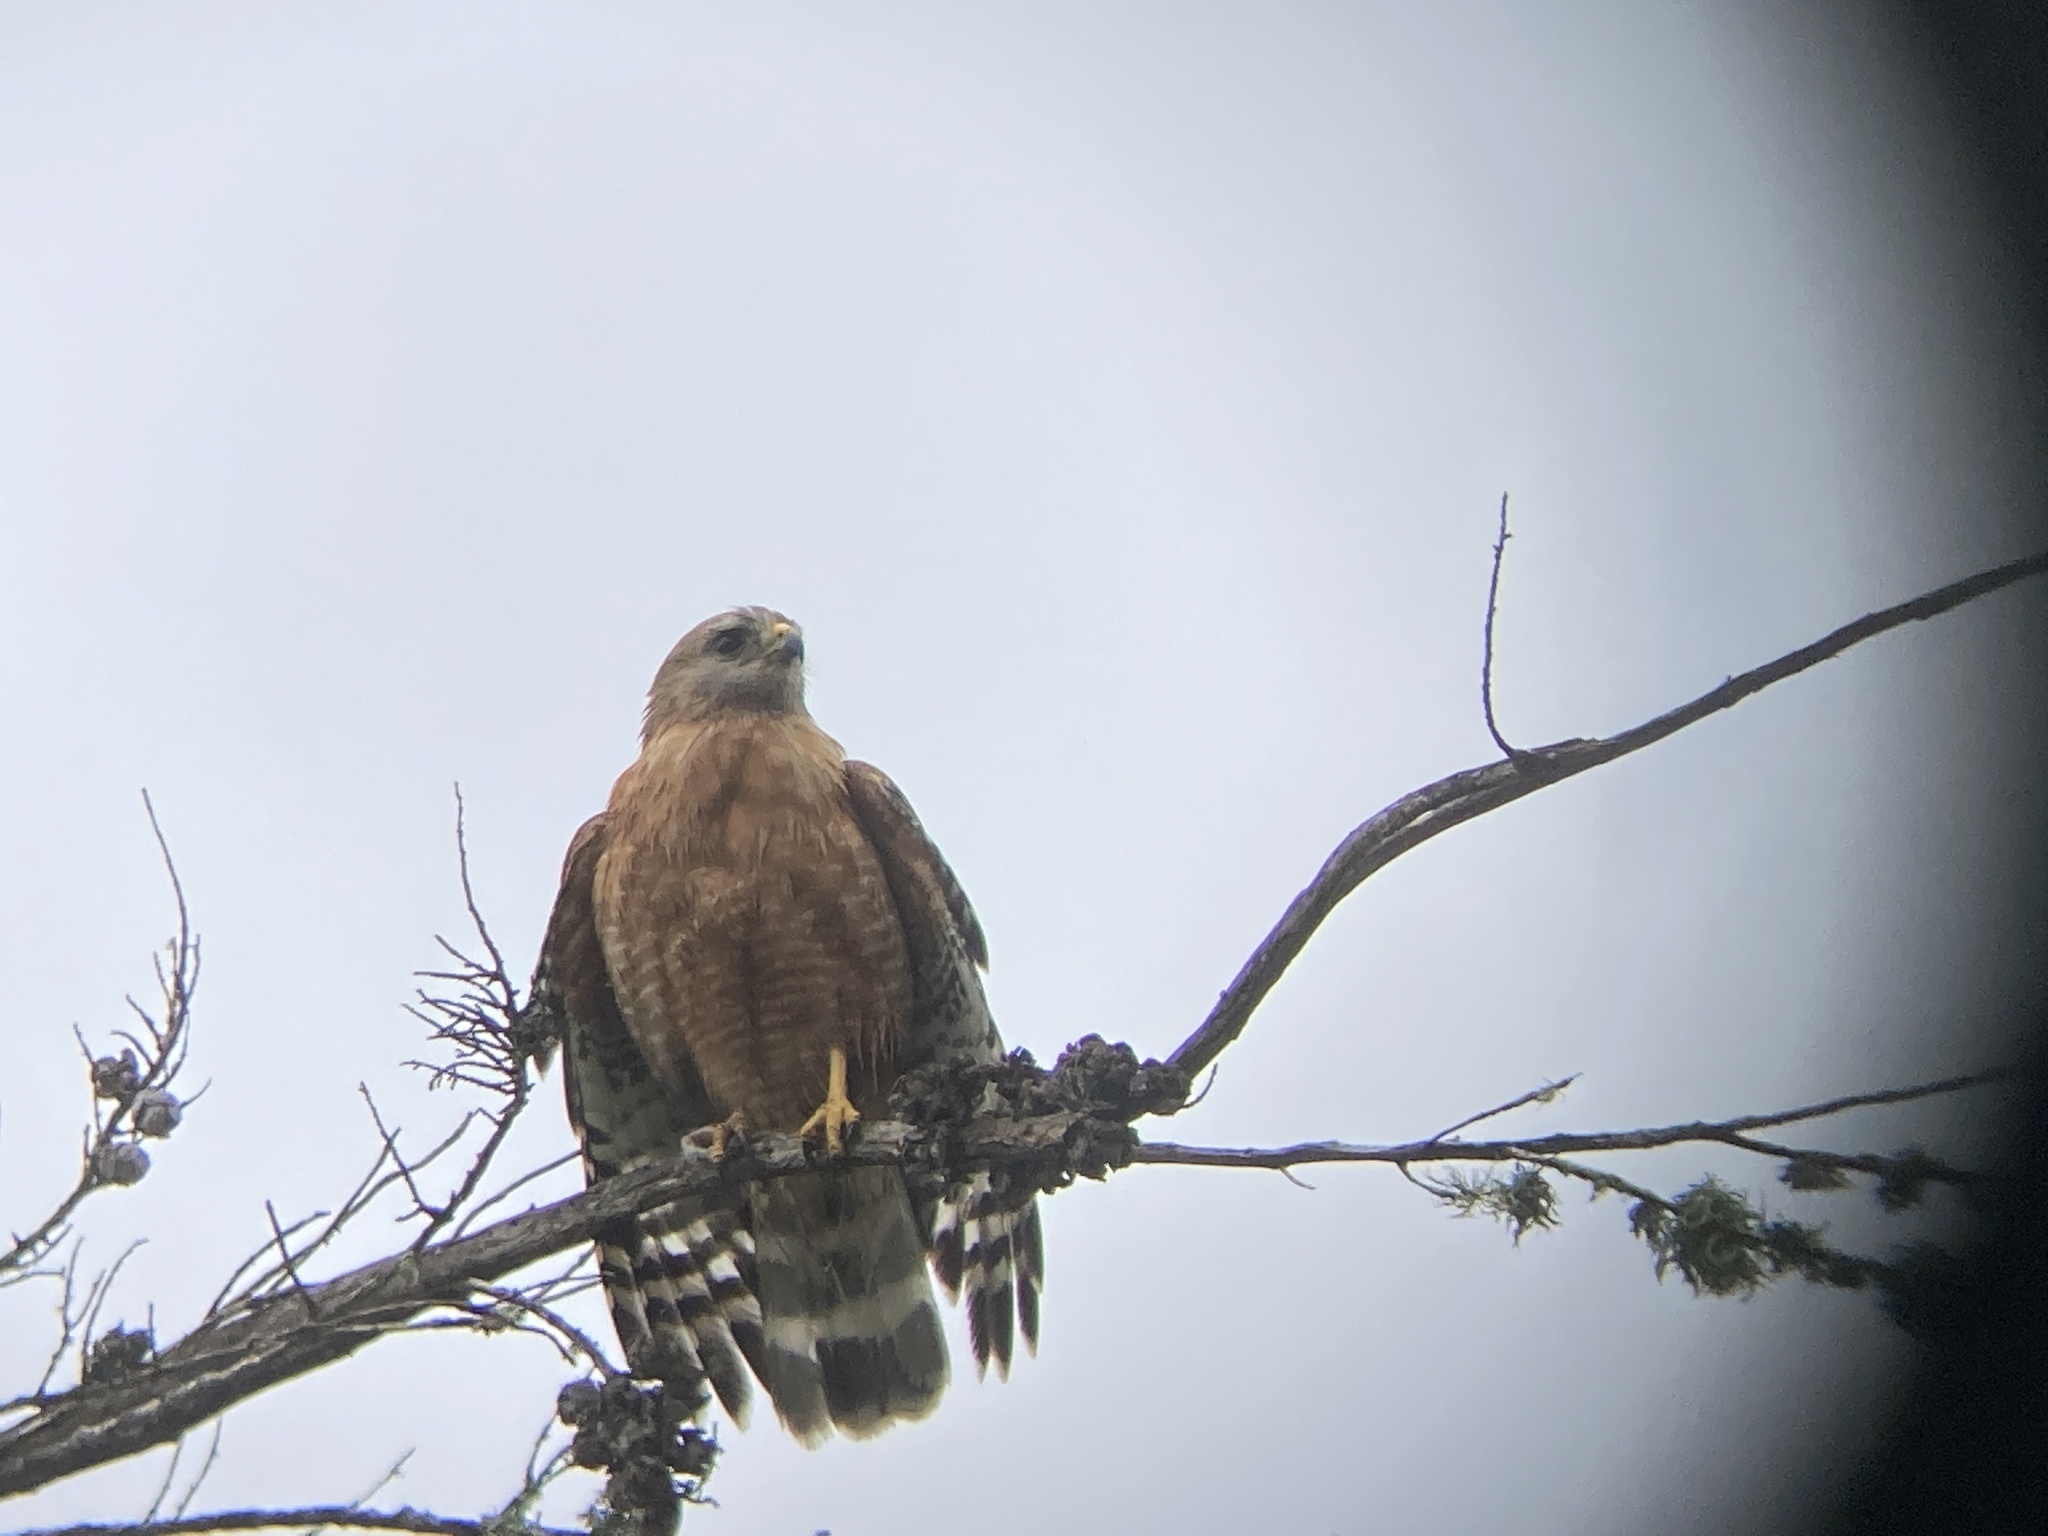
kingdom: Animalia
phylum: Chordata
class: Aves
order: Accipitriformes
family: Accipitridae
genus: Buteo
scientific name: Buteo lineatus
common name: Red-shouldered hawk
